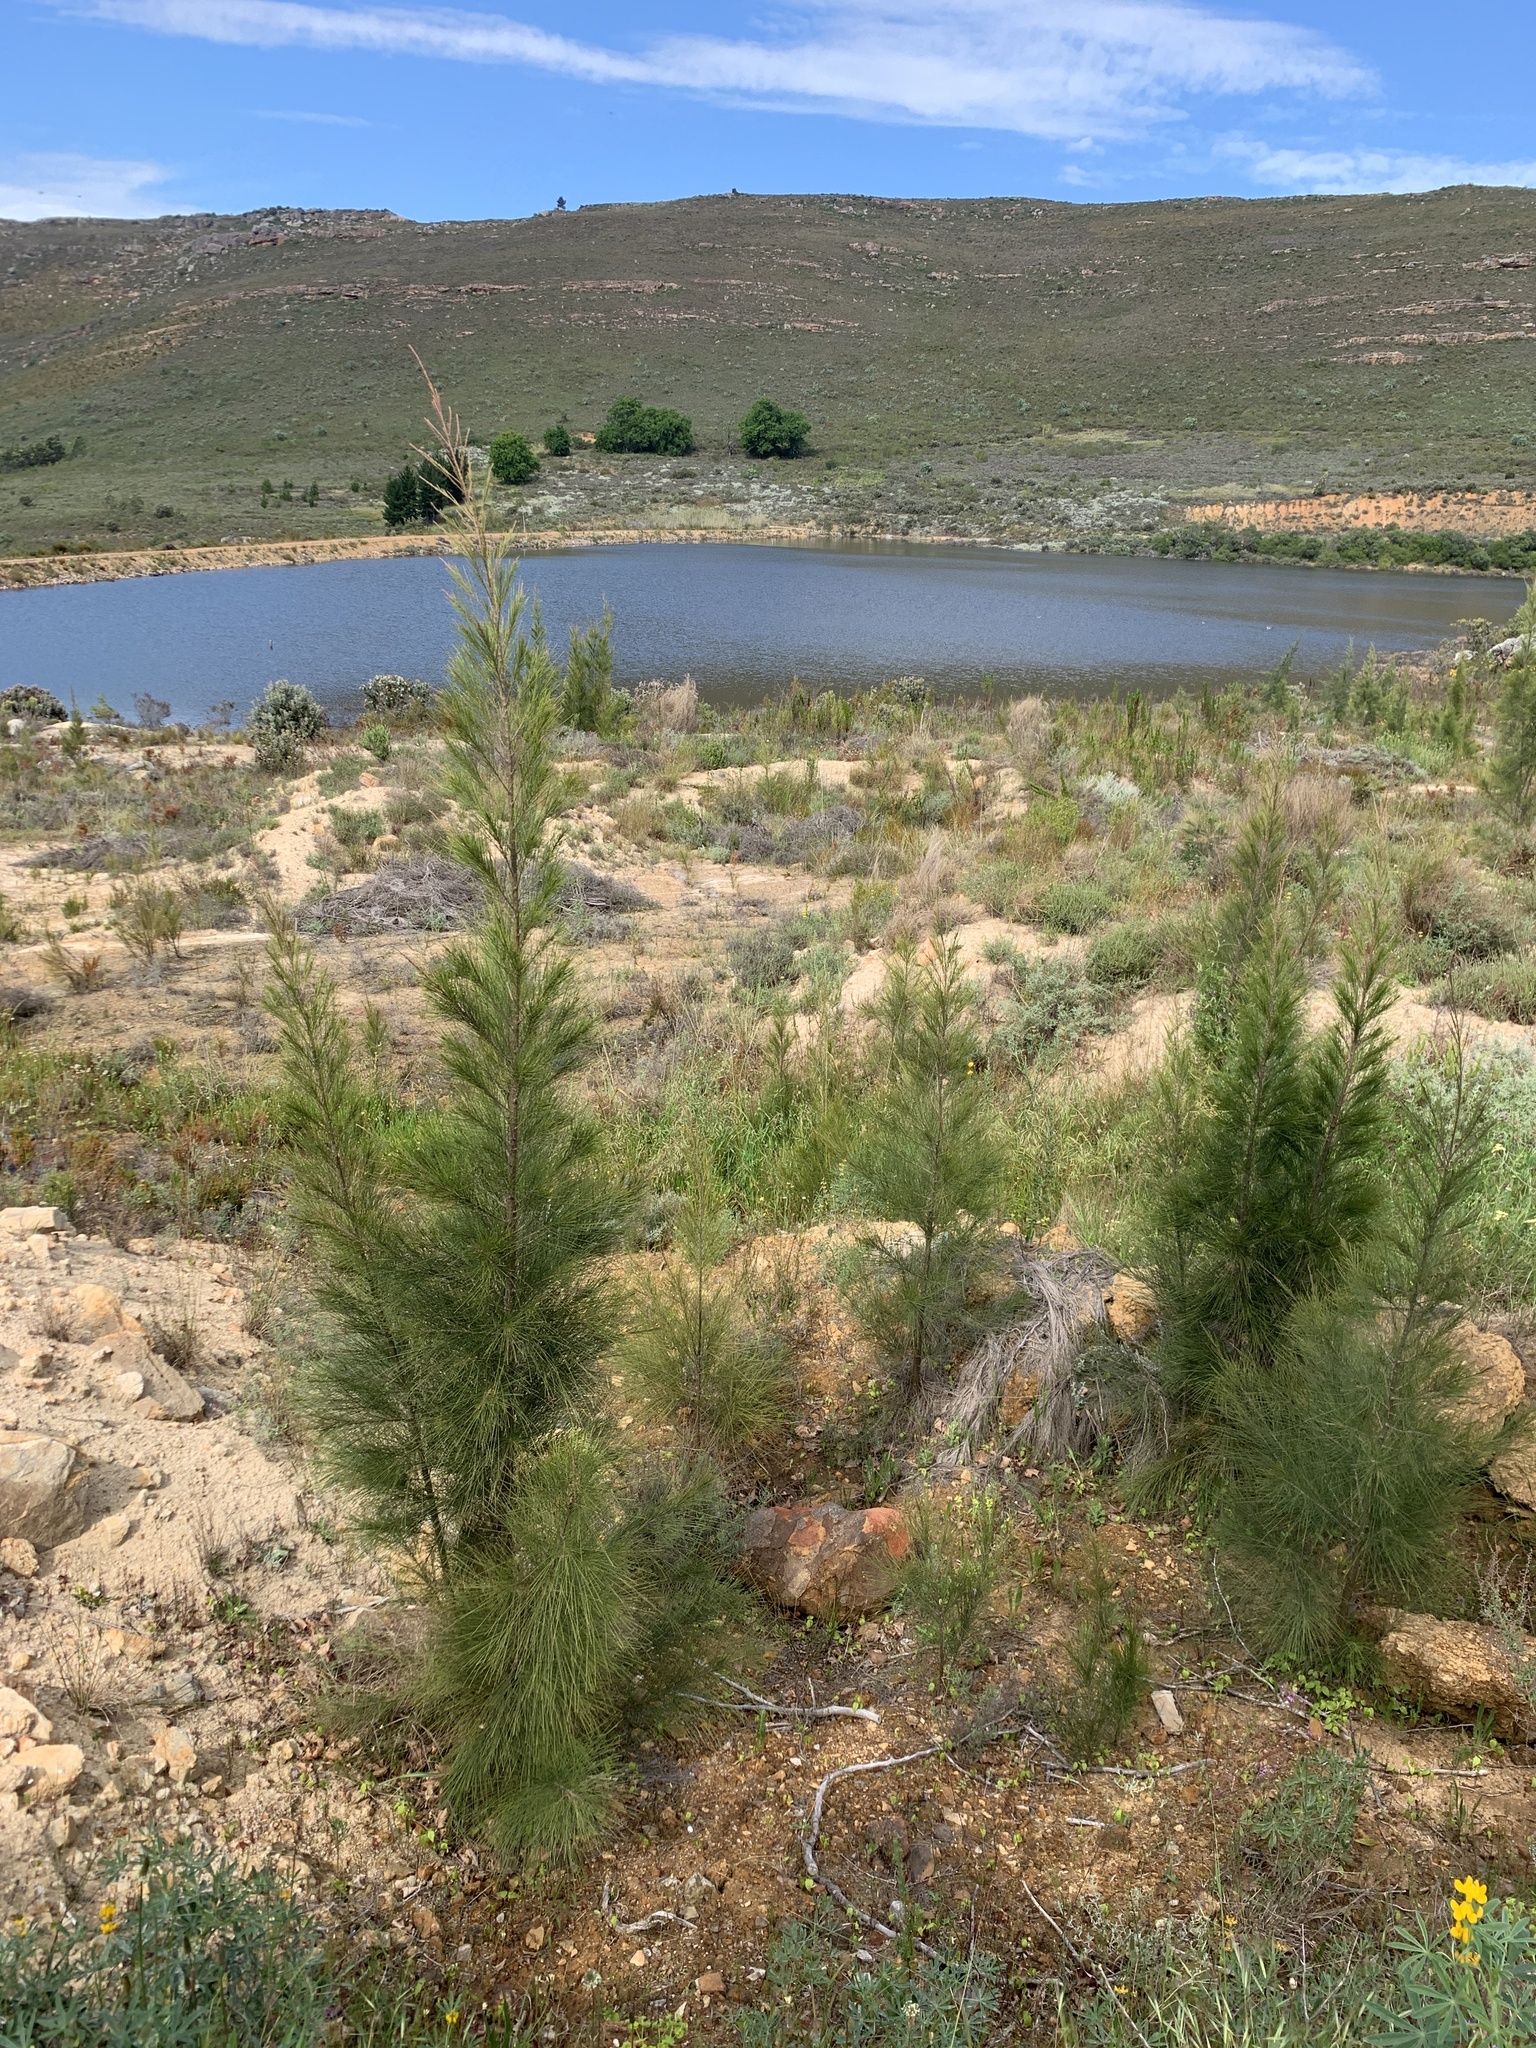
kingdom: Plantae
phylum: Tracheophyta
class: Magnoliopsida
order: Fagales
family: Casuarinaceae
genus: Casuarina
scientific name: Casuarina cunninghamiana
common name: River sheoak
